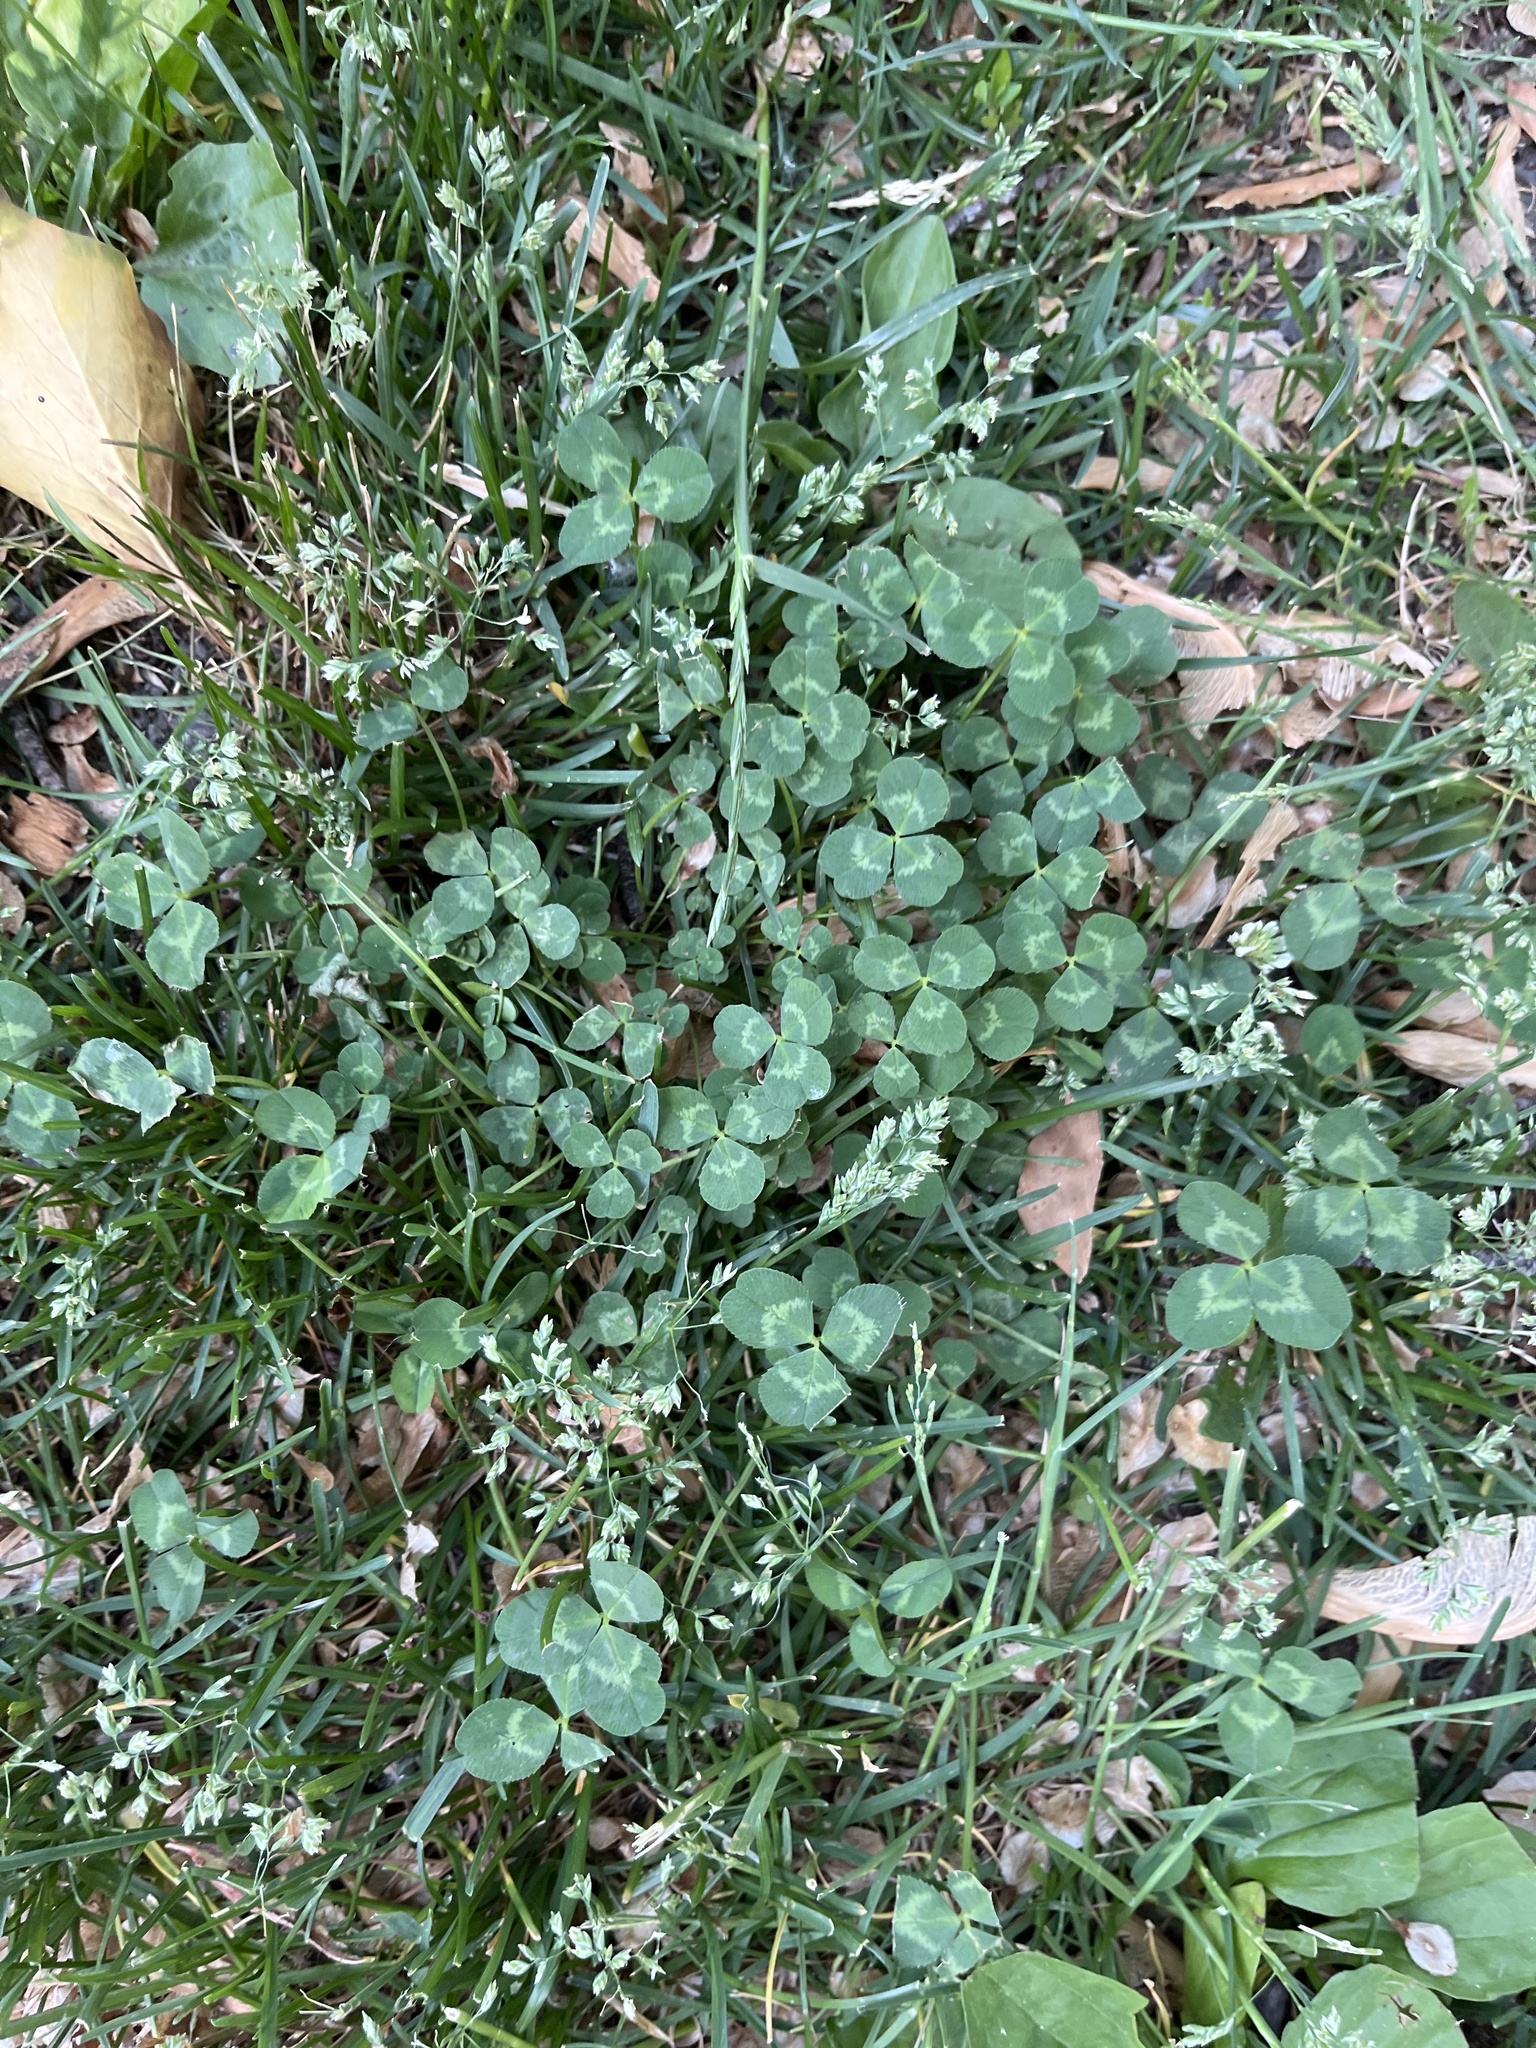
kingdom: Plantae
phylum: Tracheophyta
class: Magnoliopsida
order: Fabales
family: Fabaceae
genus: Trifolium
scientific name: Trifolium repens
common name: White clover
